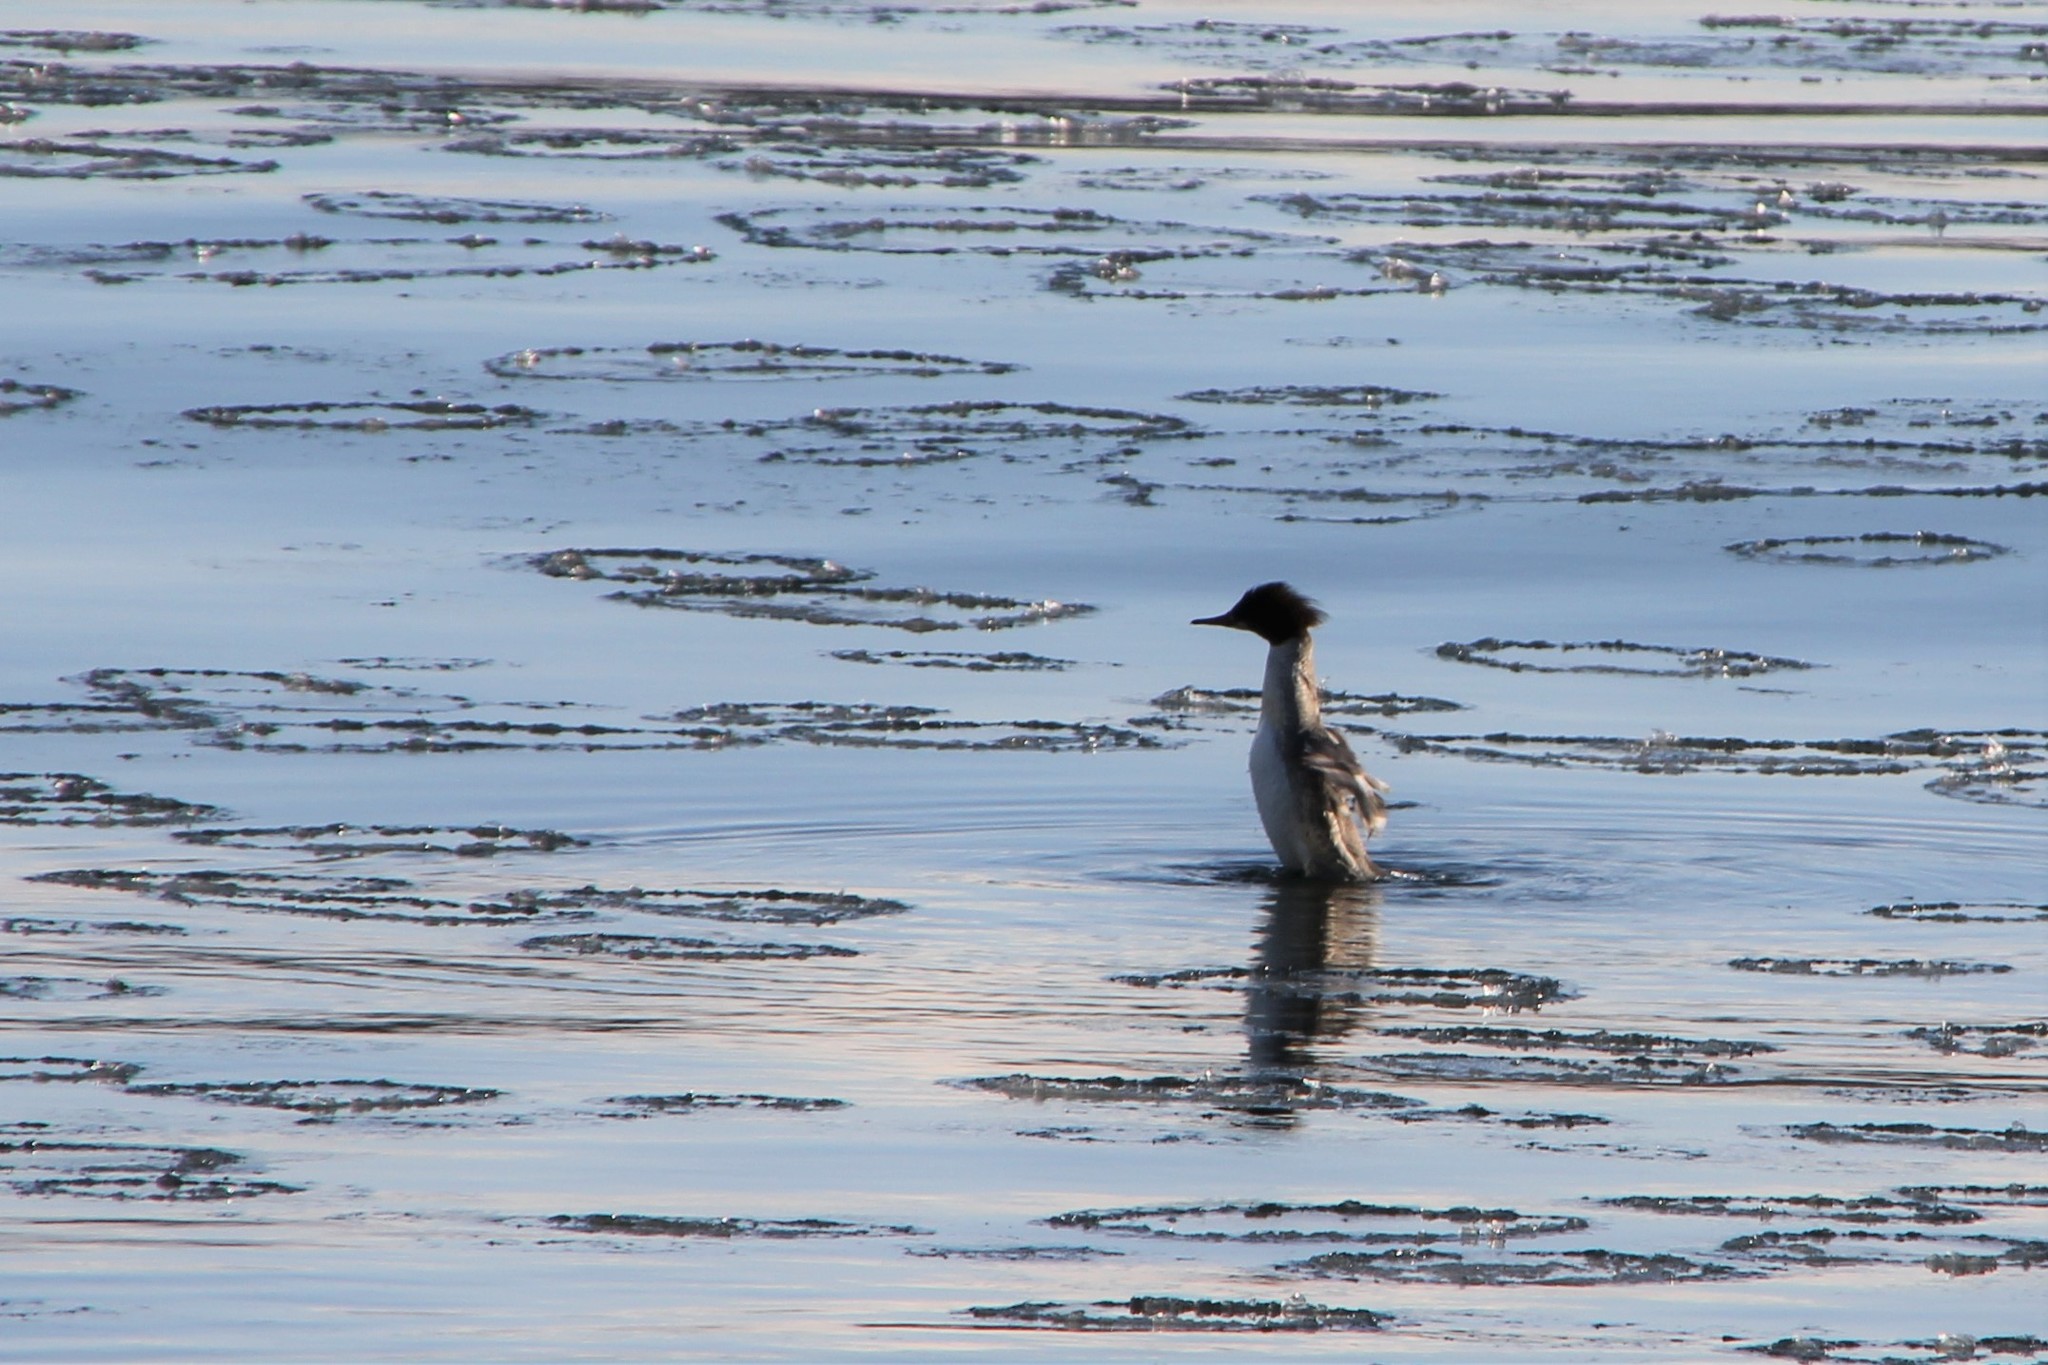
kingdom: Animalia
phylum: Chordata
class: Aves
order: Anseriformes
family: Anatidae
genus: Mergus
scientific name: Mergus merganser
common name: Common merganser
